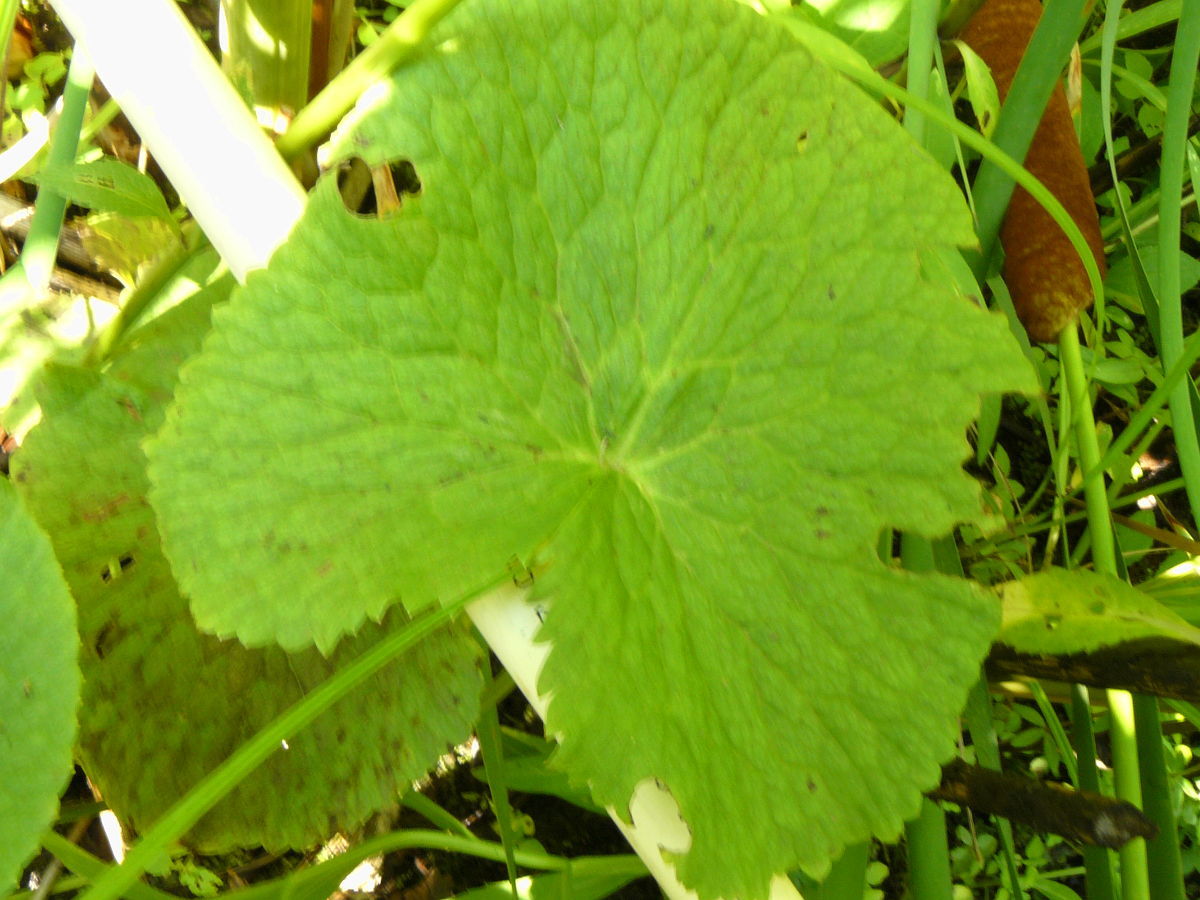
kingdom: Plantae
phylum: Tracheophyta
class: Magnoliopsida
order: Ranunculales
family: Ranunculaceae
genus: Caltha
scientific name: Caltha palustris
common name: Marsh marigold
